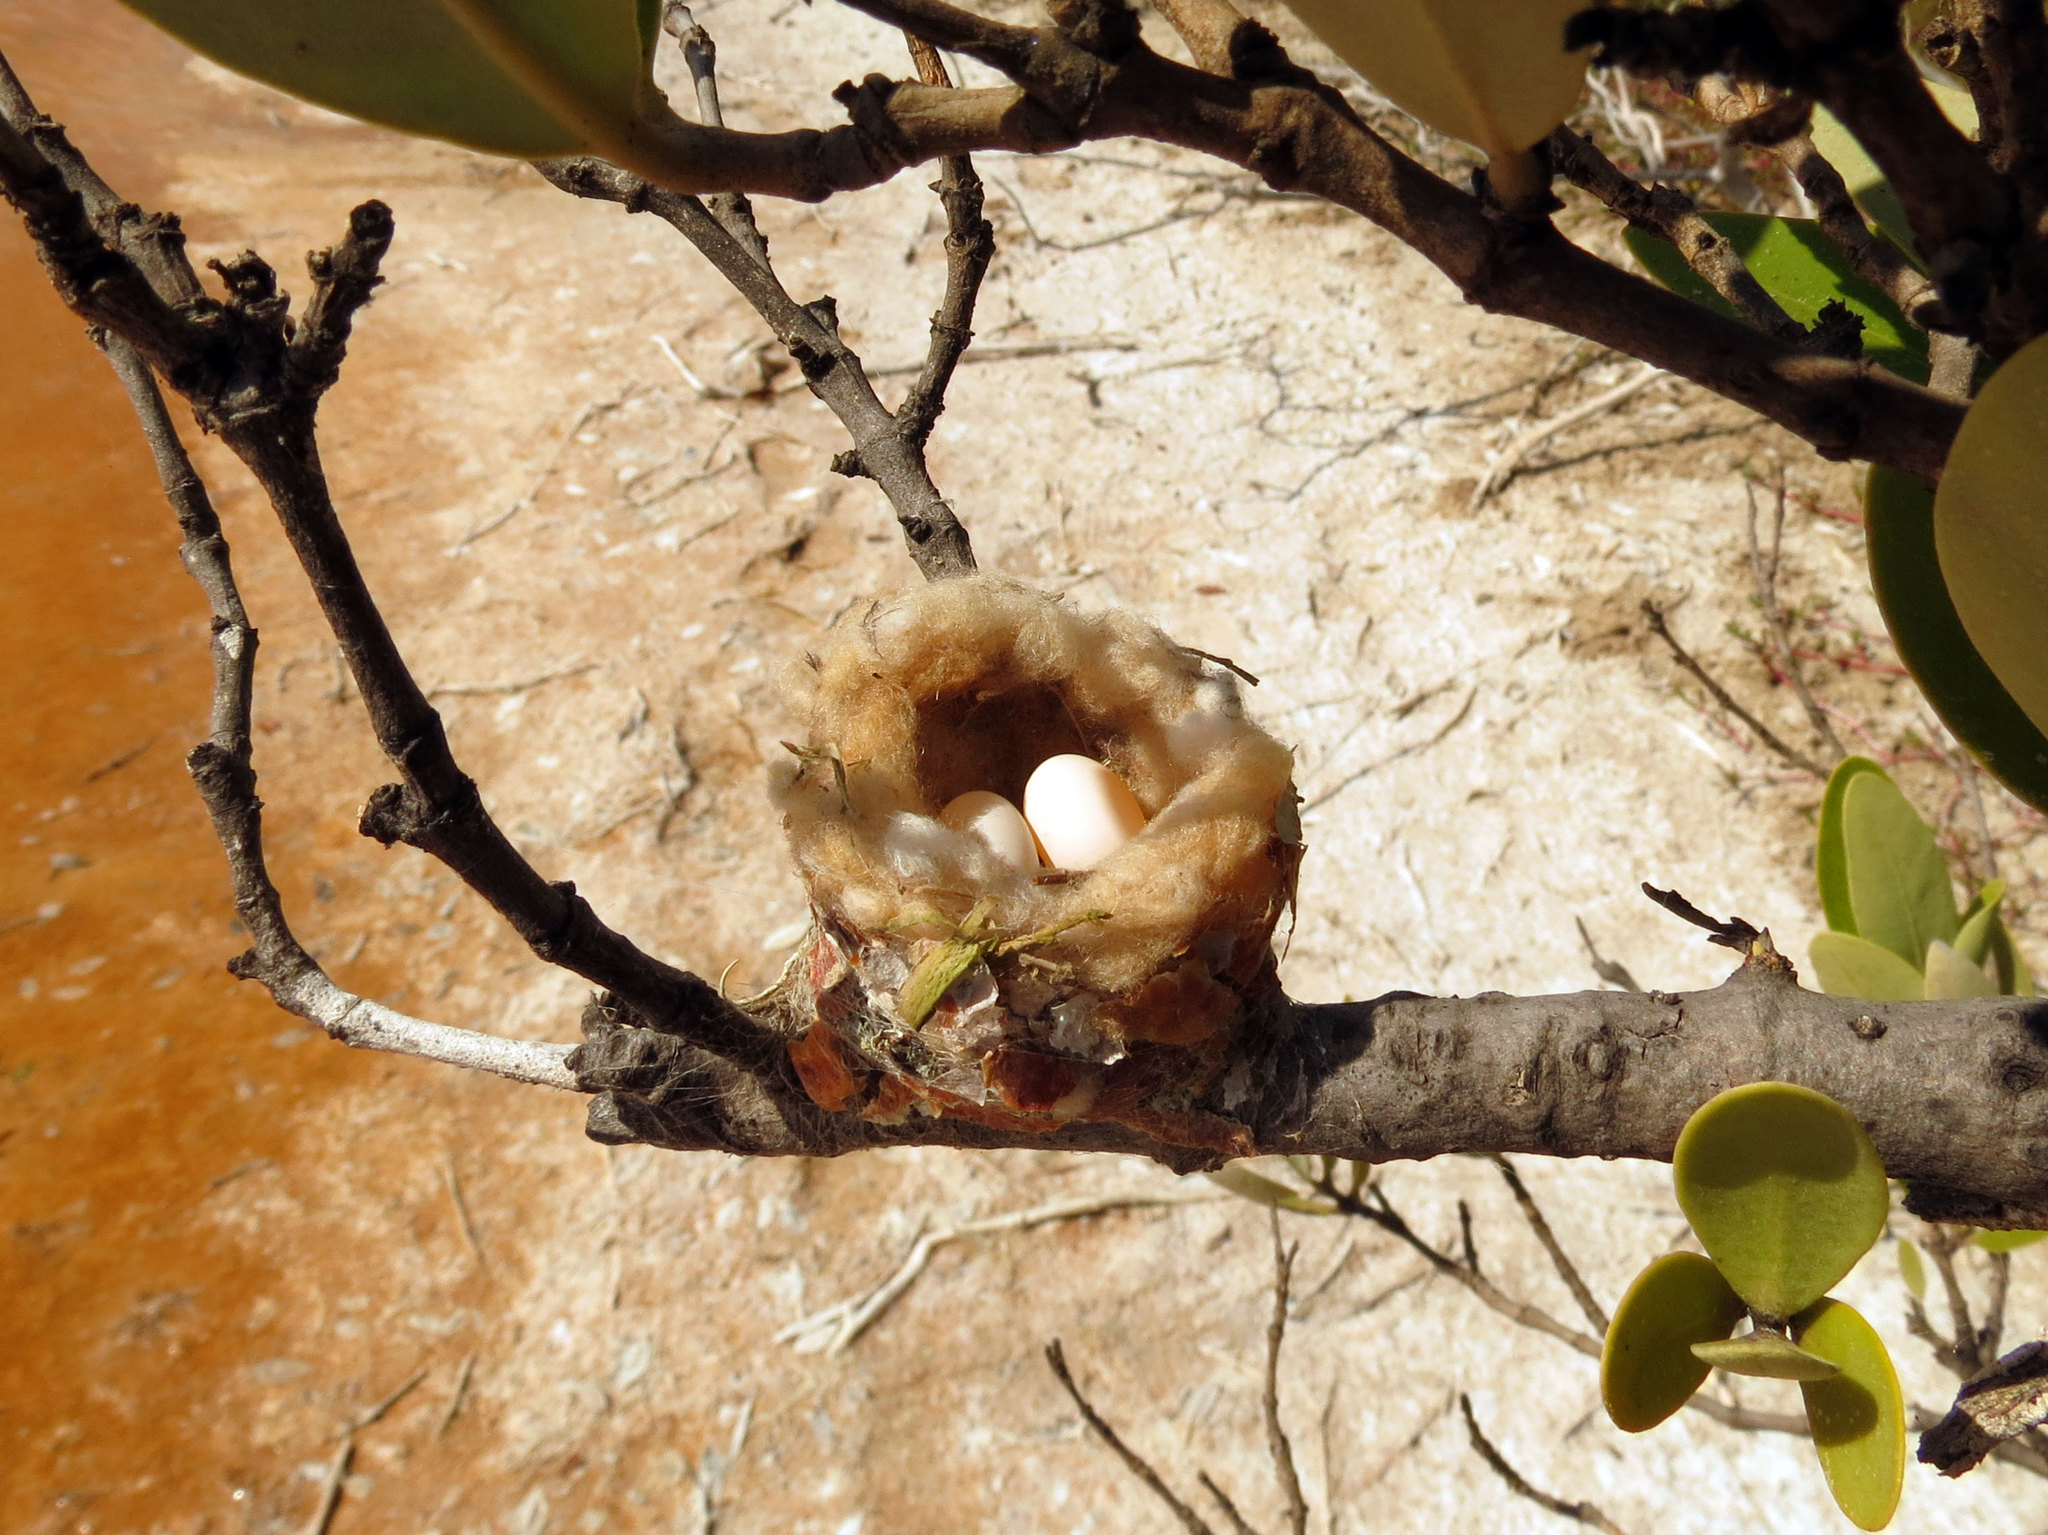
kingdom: Animalia
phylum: Chordata
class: Aves
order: Apodiformes
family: Trochilidae
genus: Doricha
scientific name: Doricha eliza
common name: Mexican sheartail
